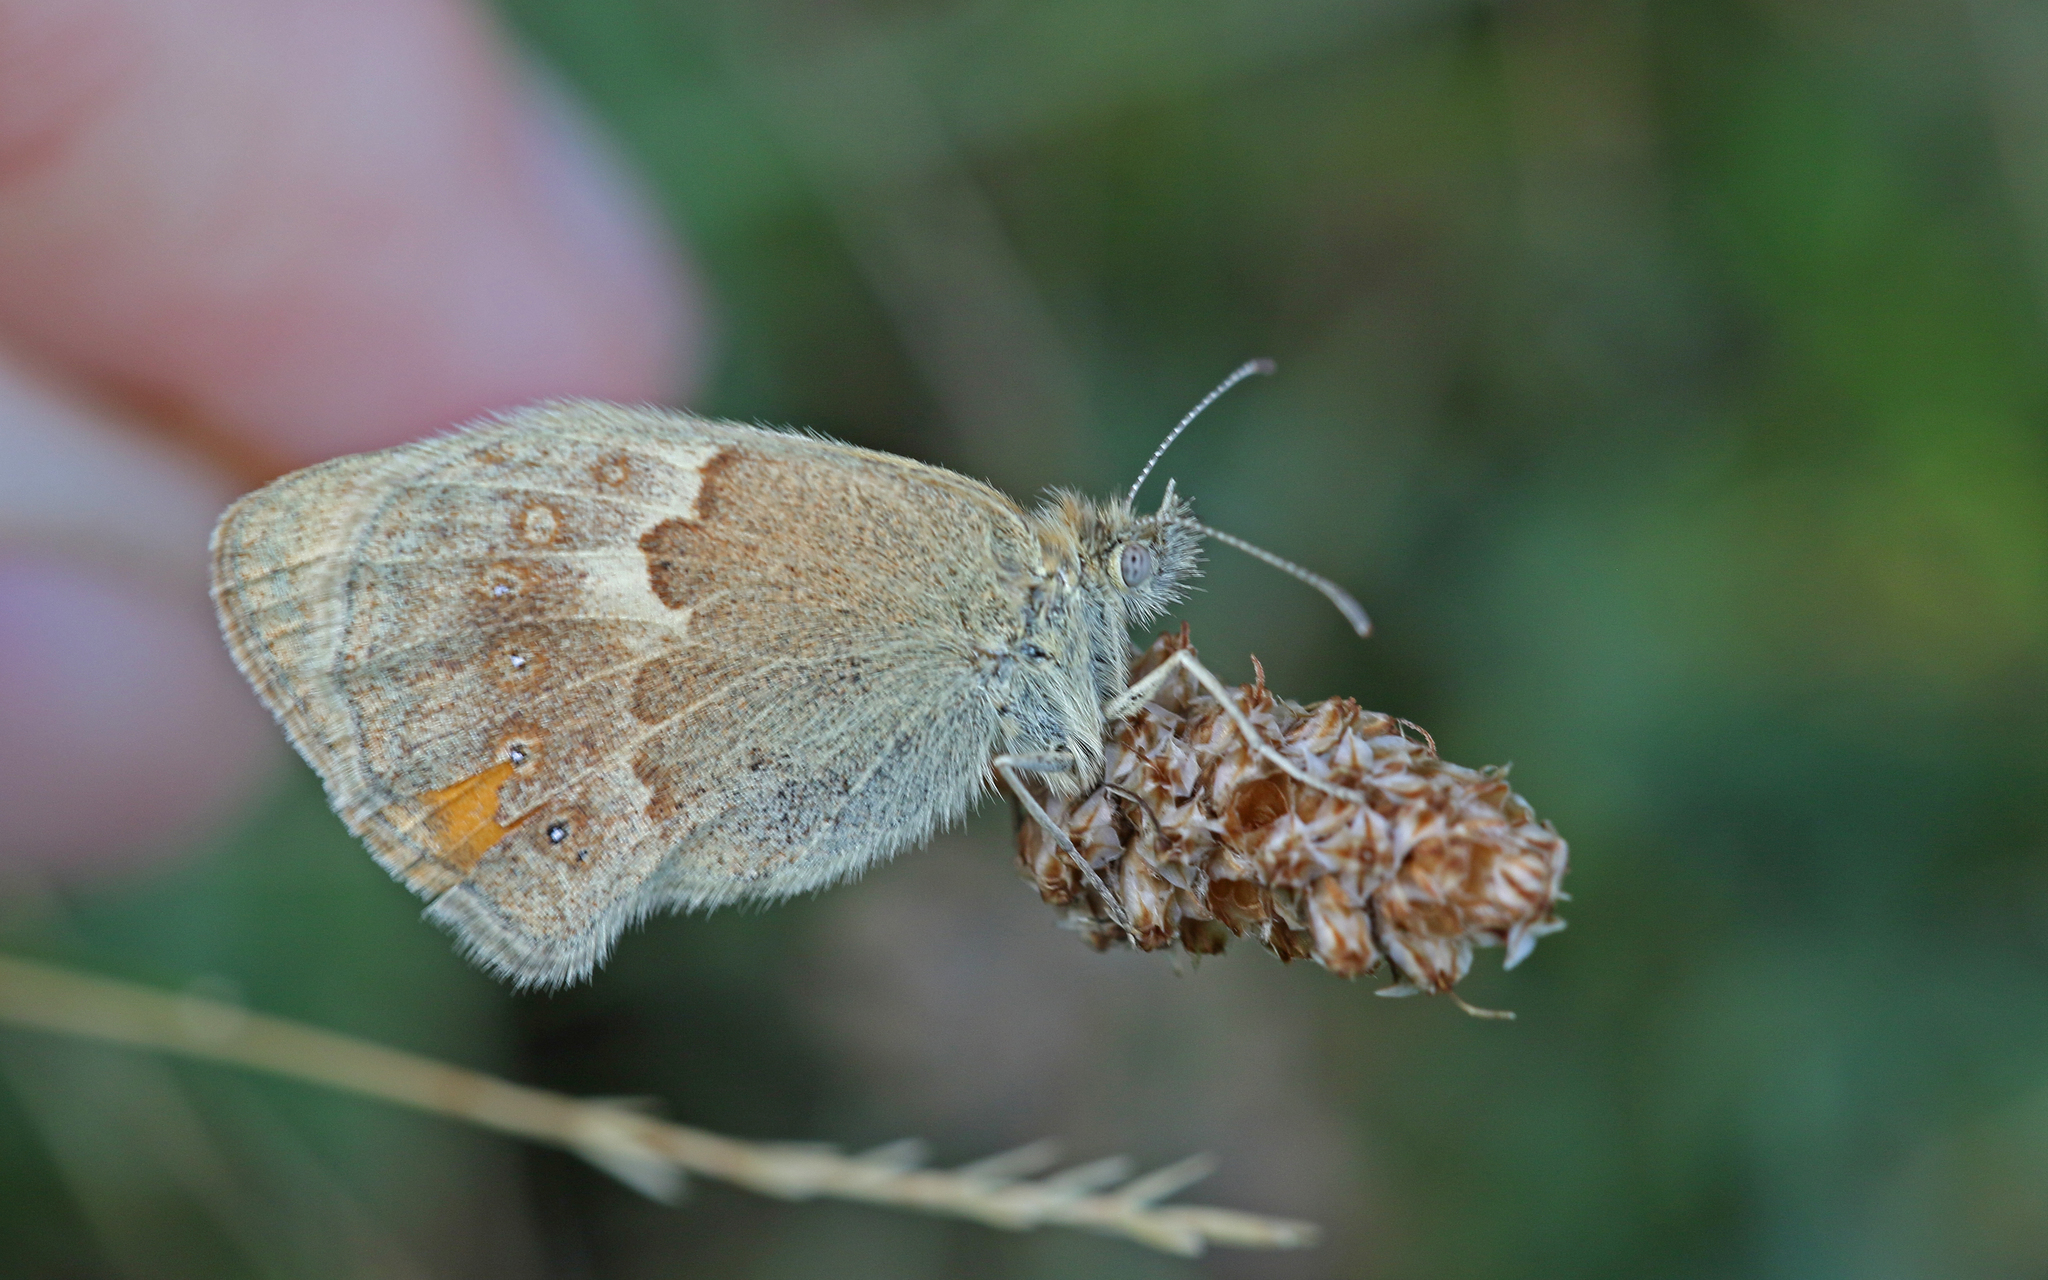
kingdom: Animalia
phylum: Arthropoda
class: Insecta
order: Lepidoptera
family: Nymphalidae
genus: Coenonympha
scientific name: Coenonympha pamphilus
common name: Small heath
